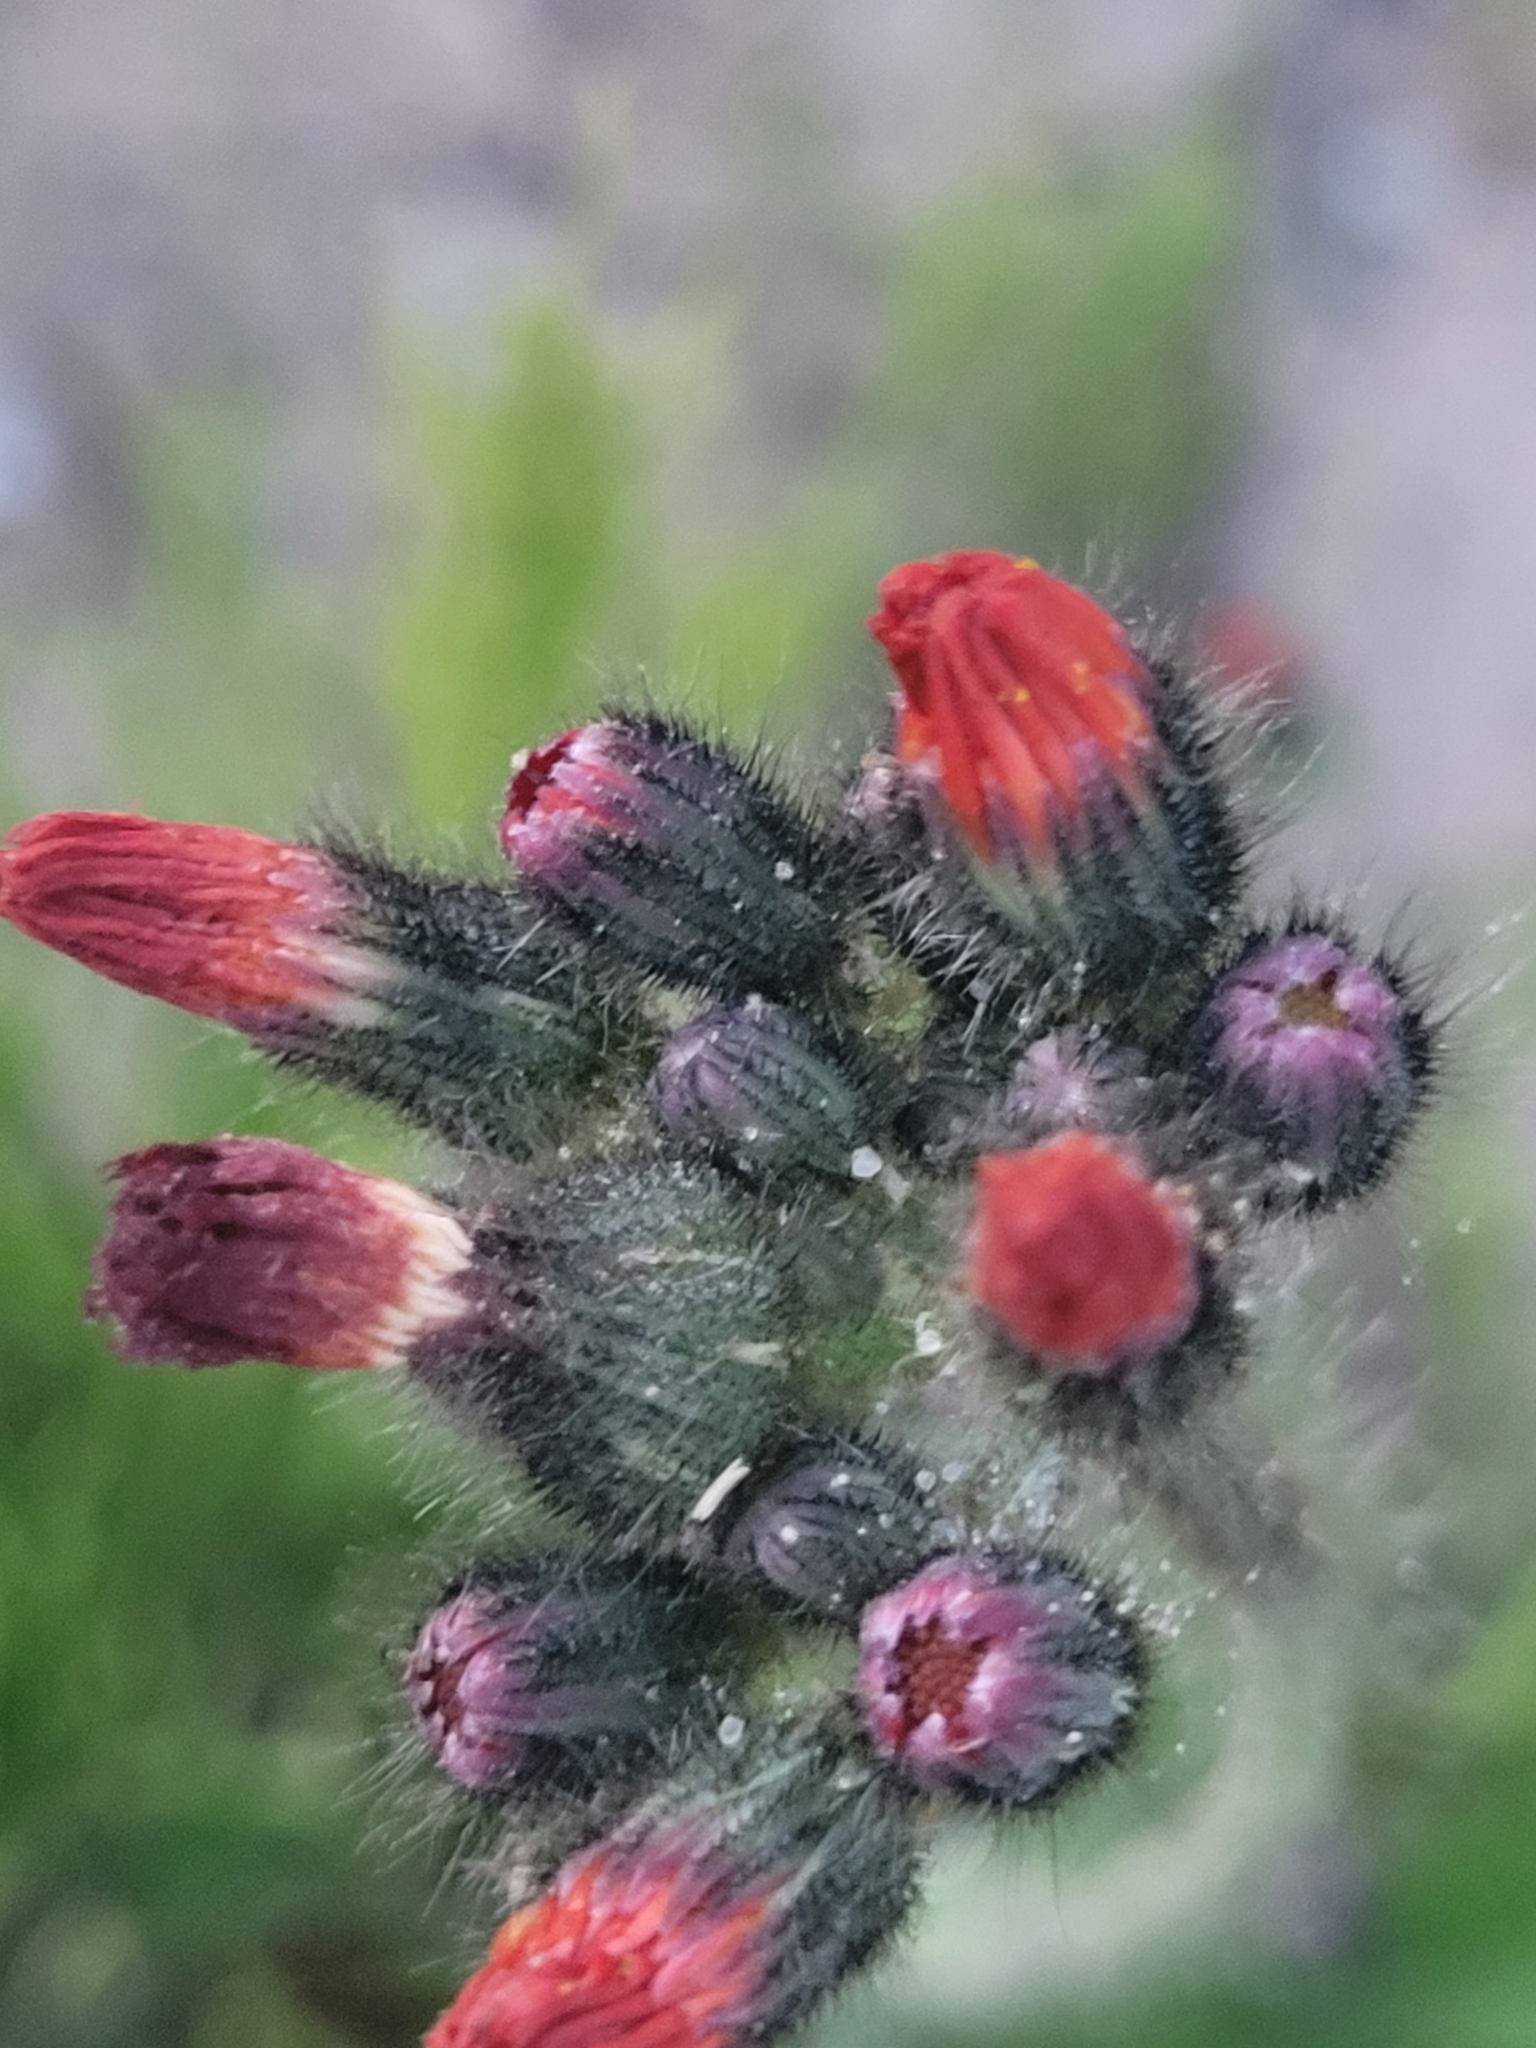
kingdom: Plantae
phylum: Tracheophyta
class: Magnoliopsida
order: Asterales
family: Asteraceae
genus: Pilosella
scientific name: Pilosella aurantiaca
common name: Fox-and-cubs
